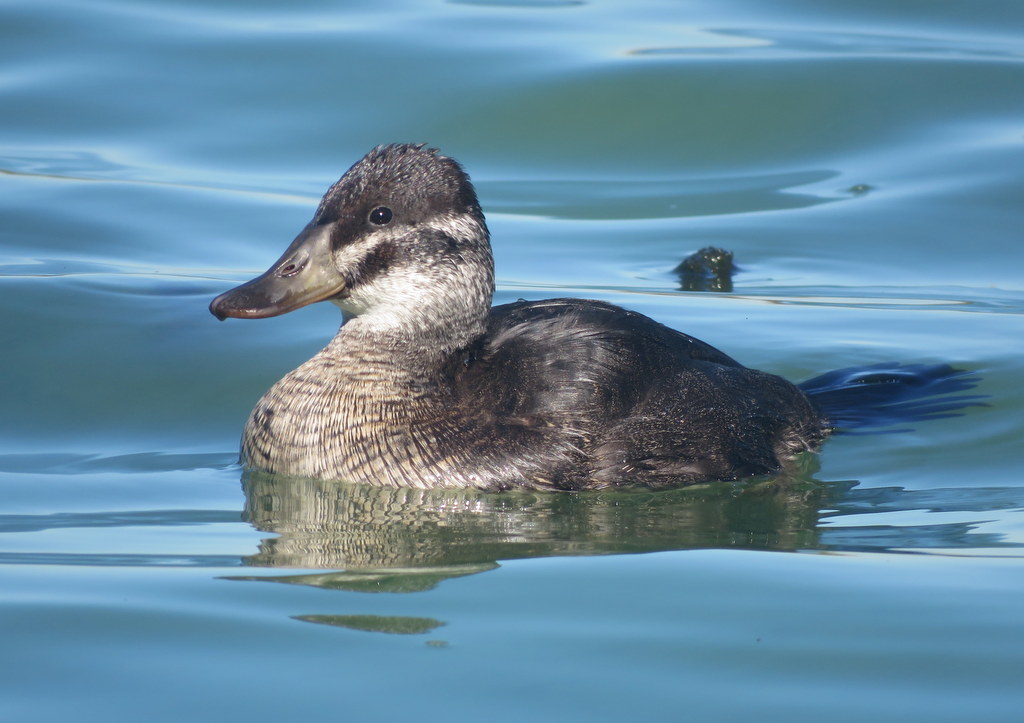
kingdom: Animalia
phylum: Chordata
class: Aves
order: Anseriformes
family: Anatidae
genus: Oxyura
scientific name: Oxyura vittata
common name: Lake duck
